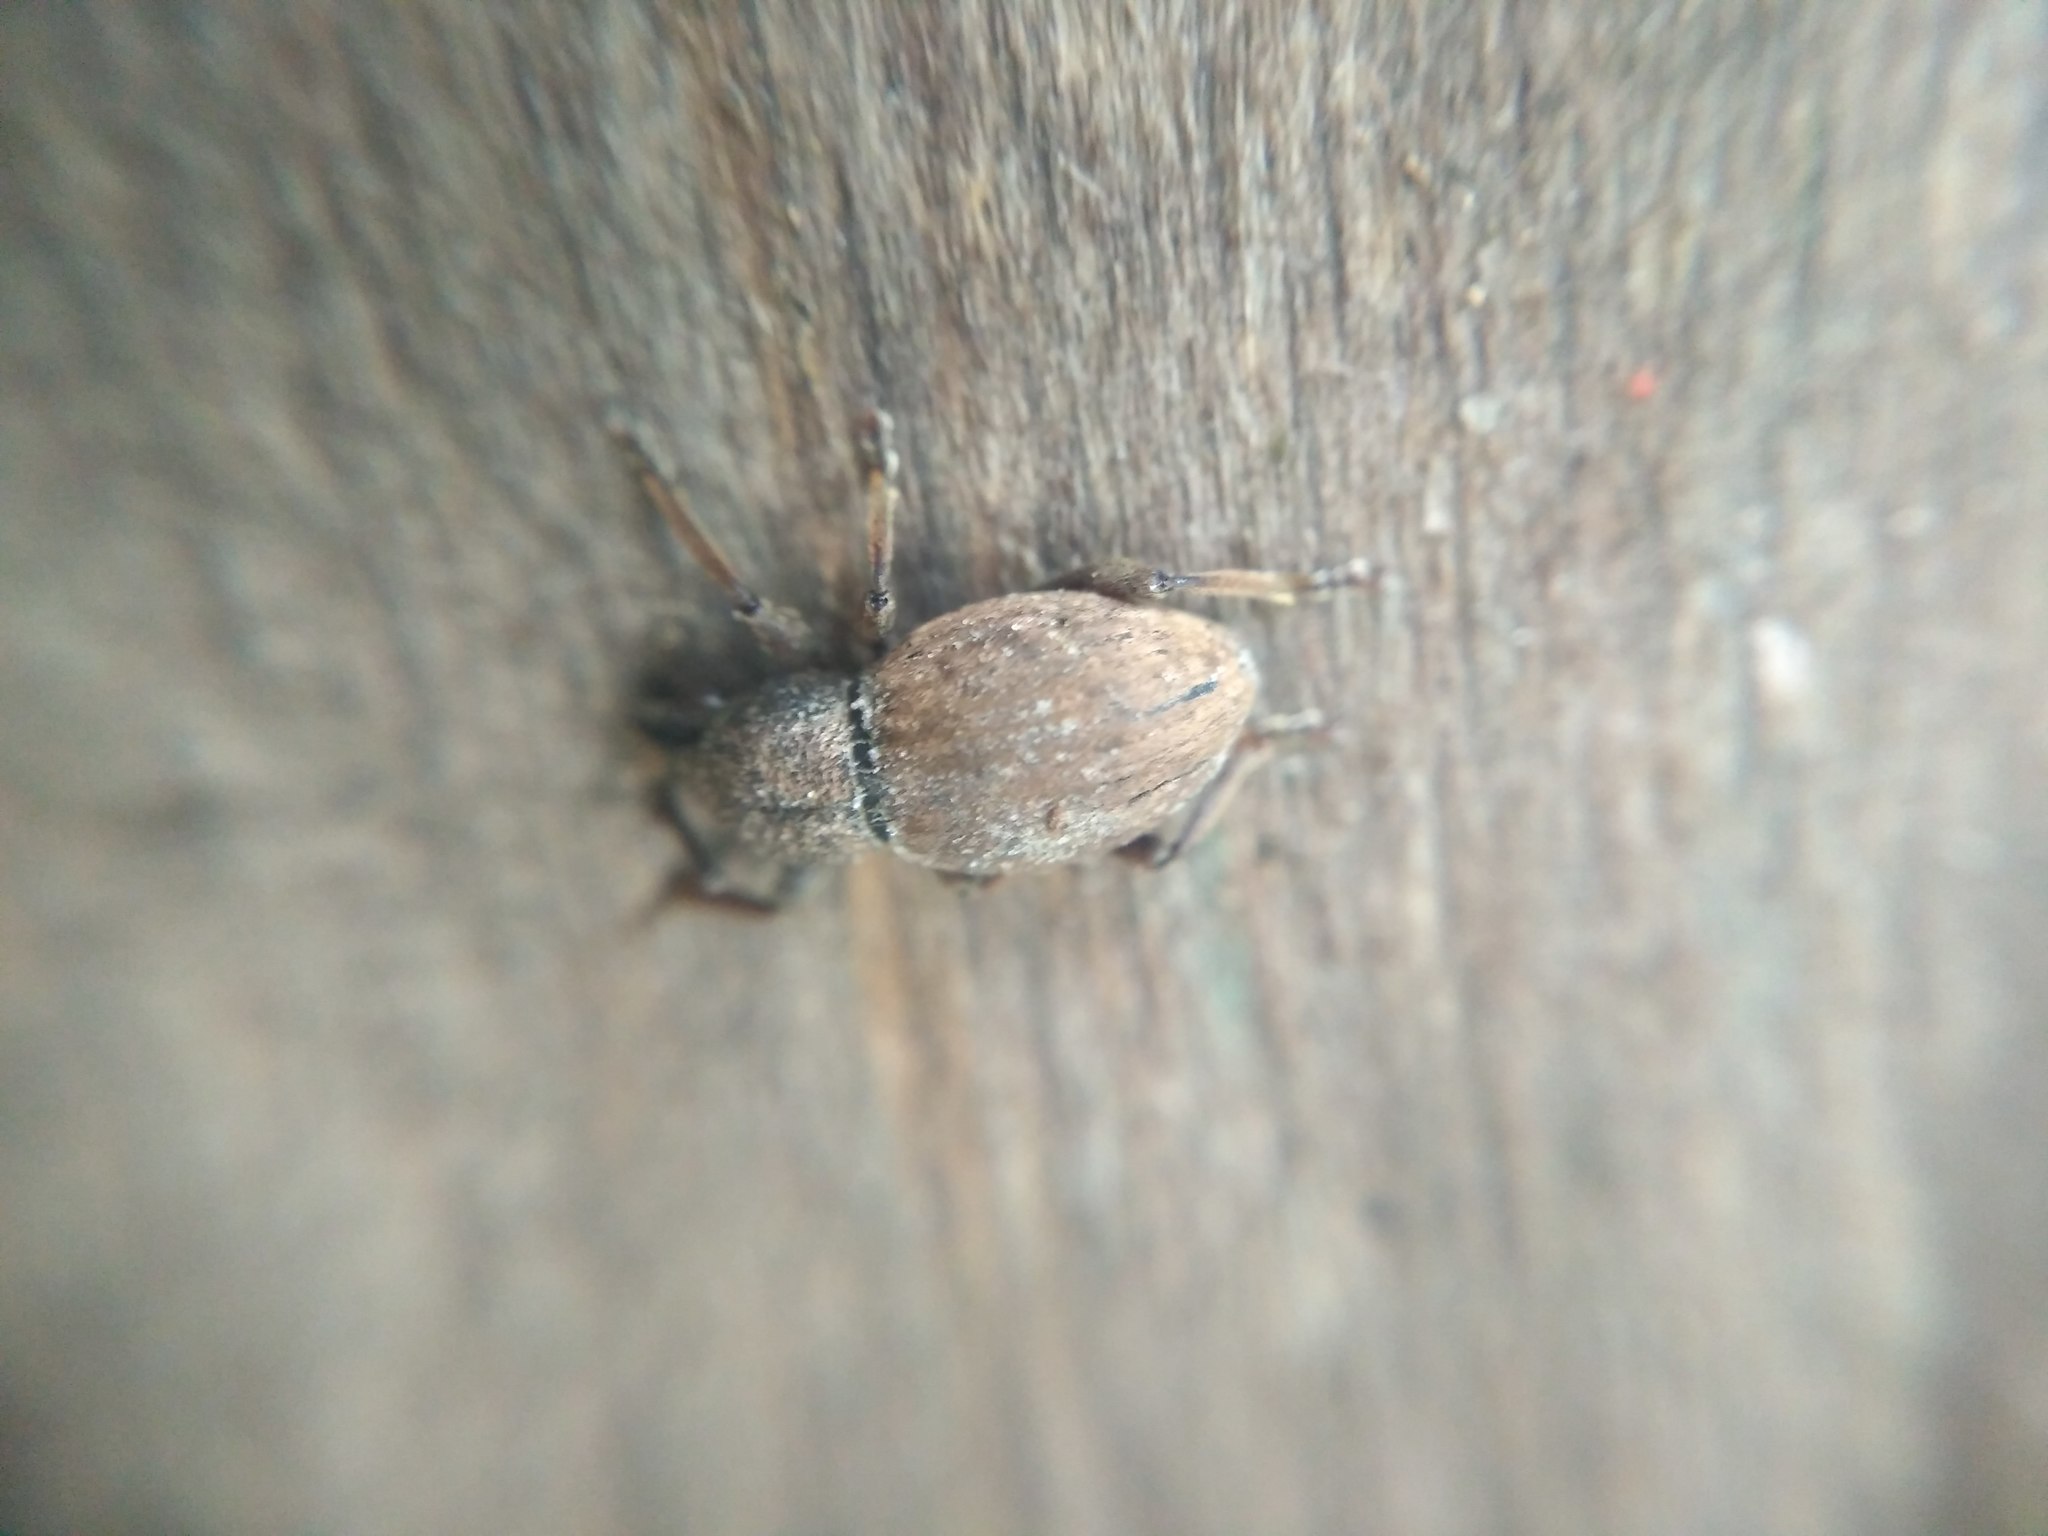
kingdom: Animalia
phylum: Arthropoda
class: Insecta
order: Coleoptera
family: Curculionidae
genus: Otiorhynchus
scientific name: Otiorhynchus raucus
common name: Weevil
